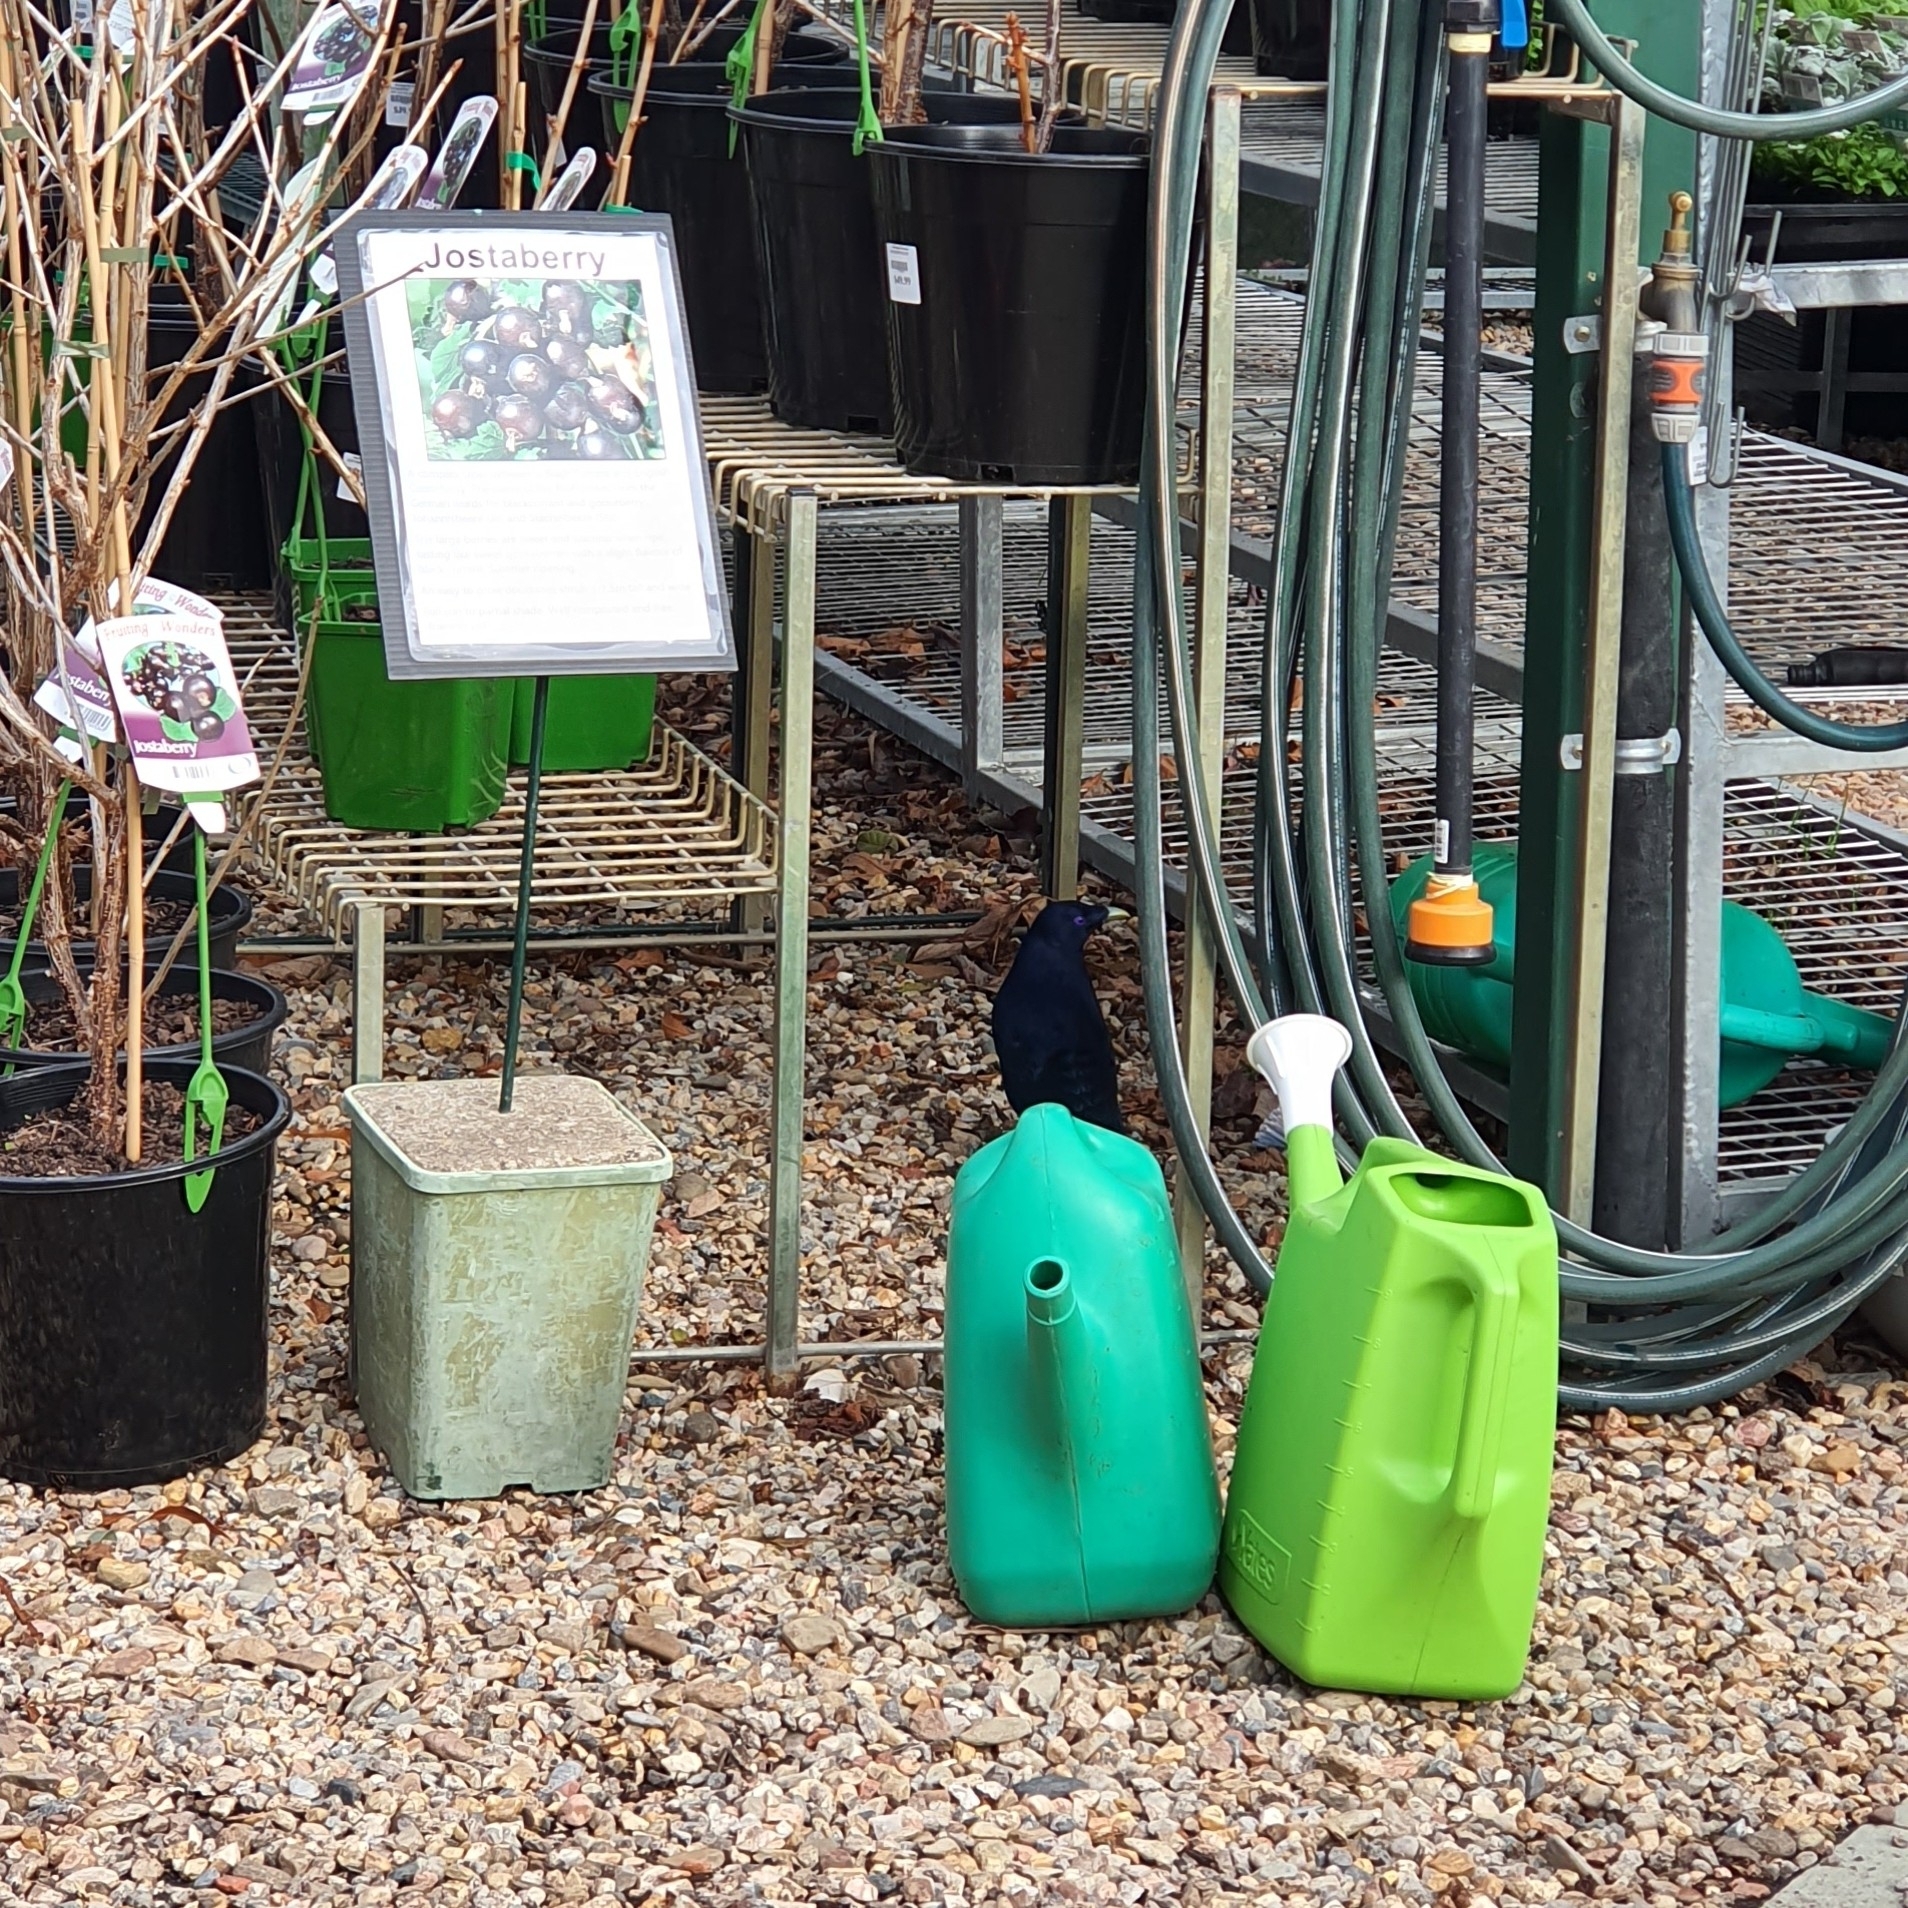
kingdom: Animalia
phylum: Chordata
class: Aves
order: Passeriformes
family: Ptilonorhynchidae
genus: Ptilonorhynchus
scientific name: Ptilonorhynchus violaceus
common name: Satin bowerbird
